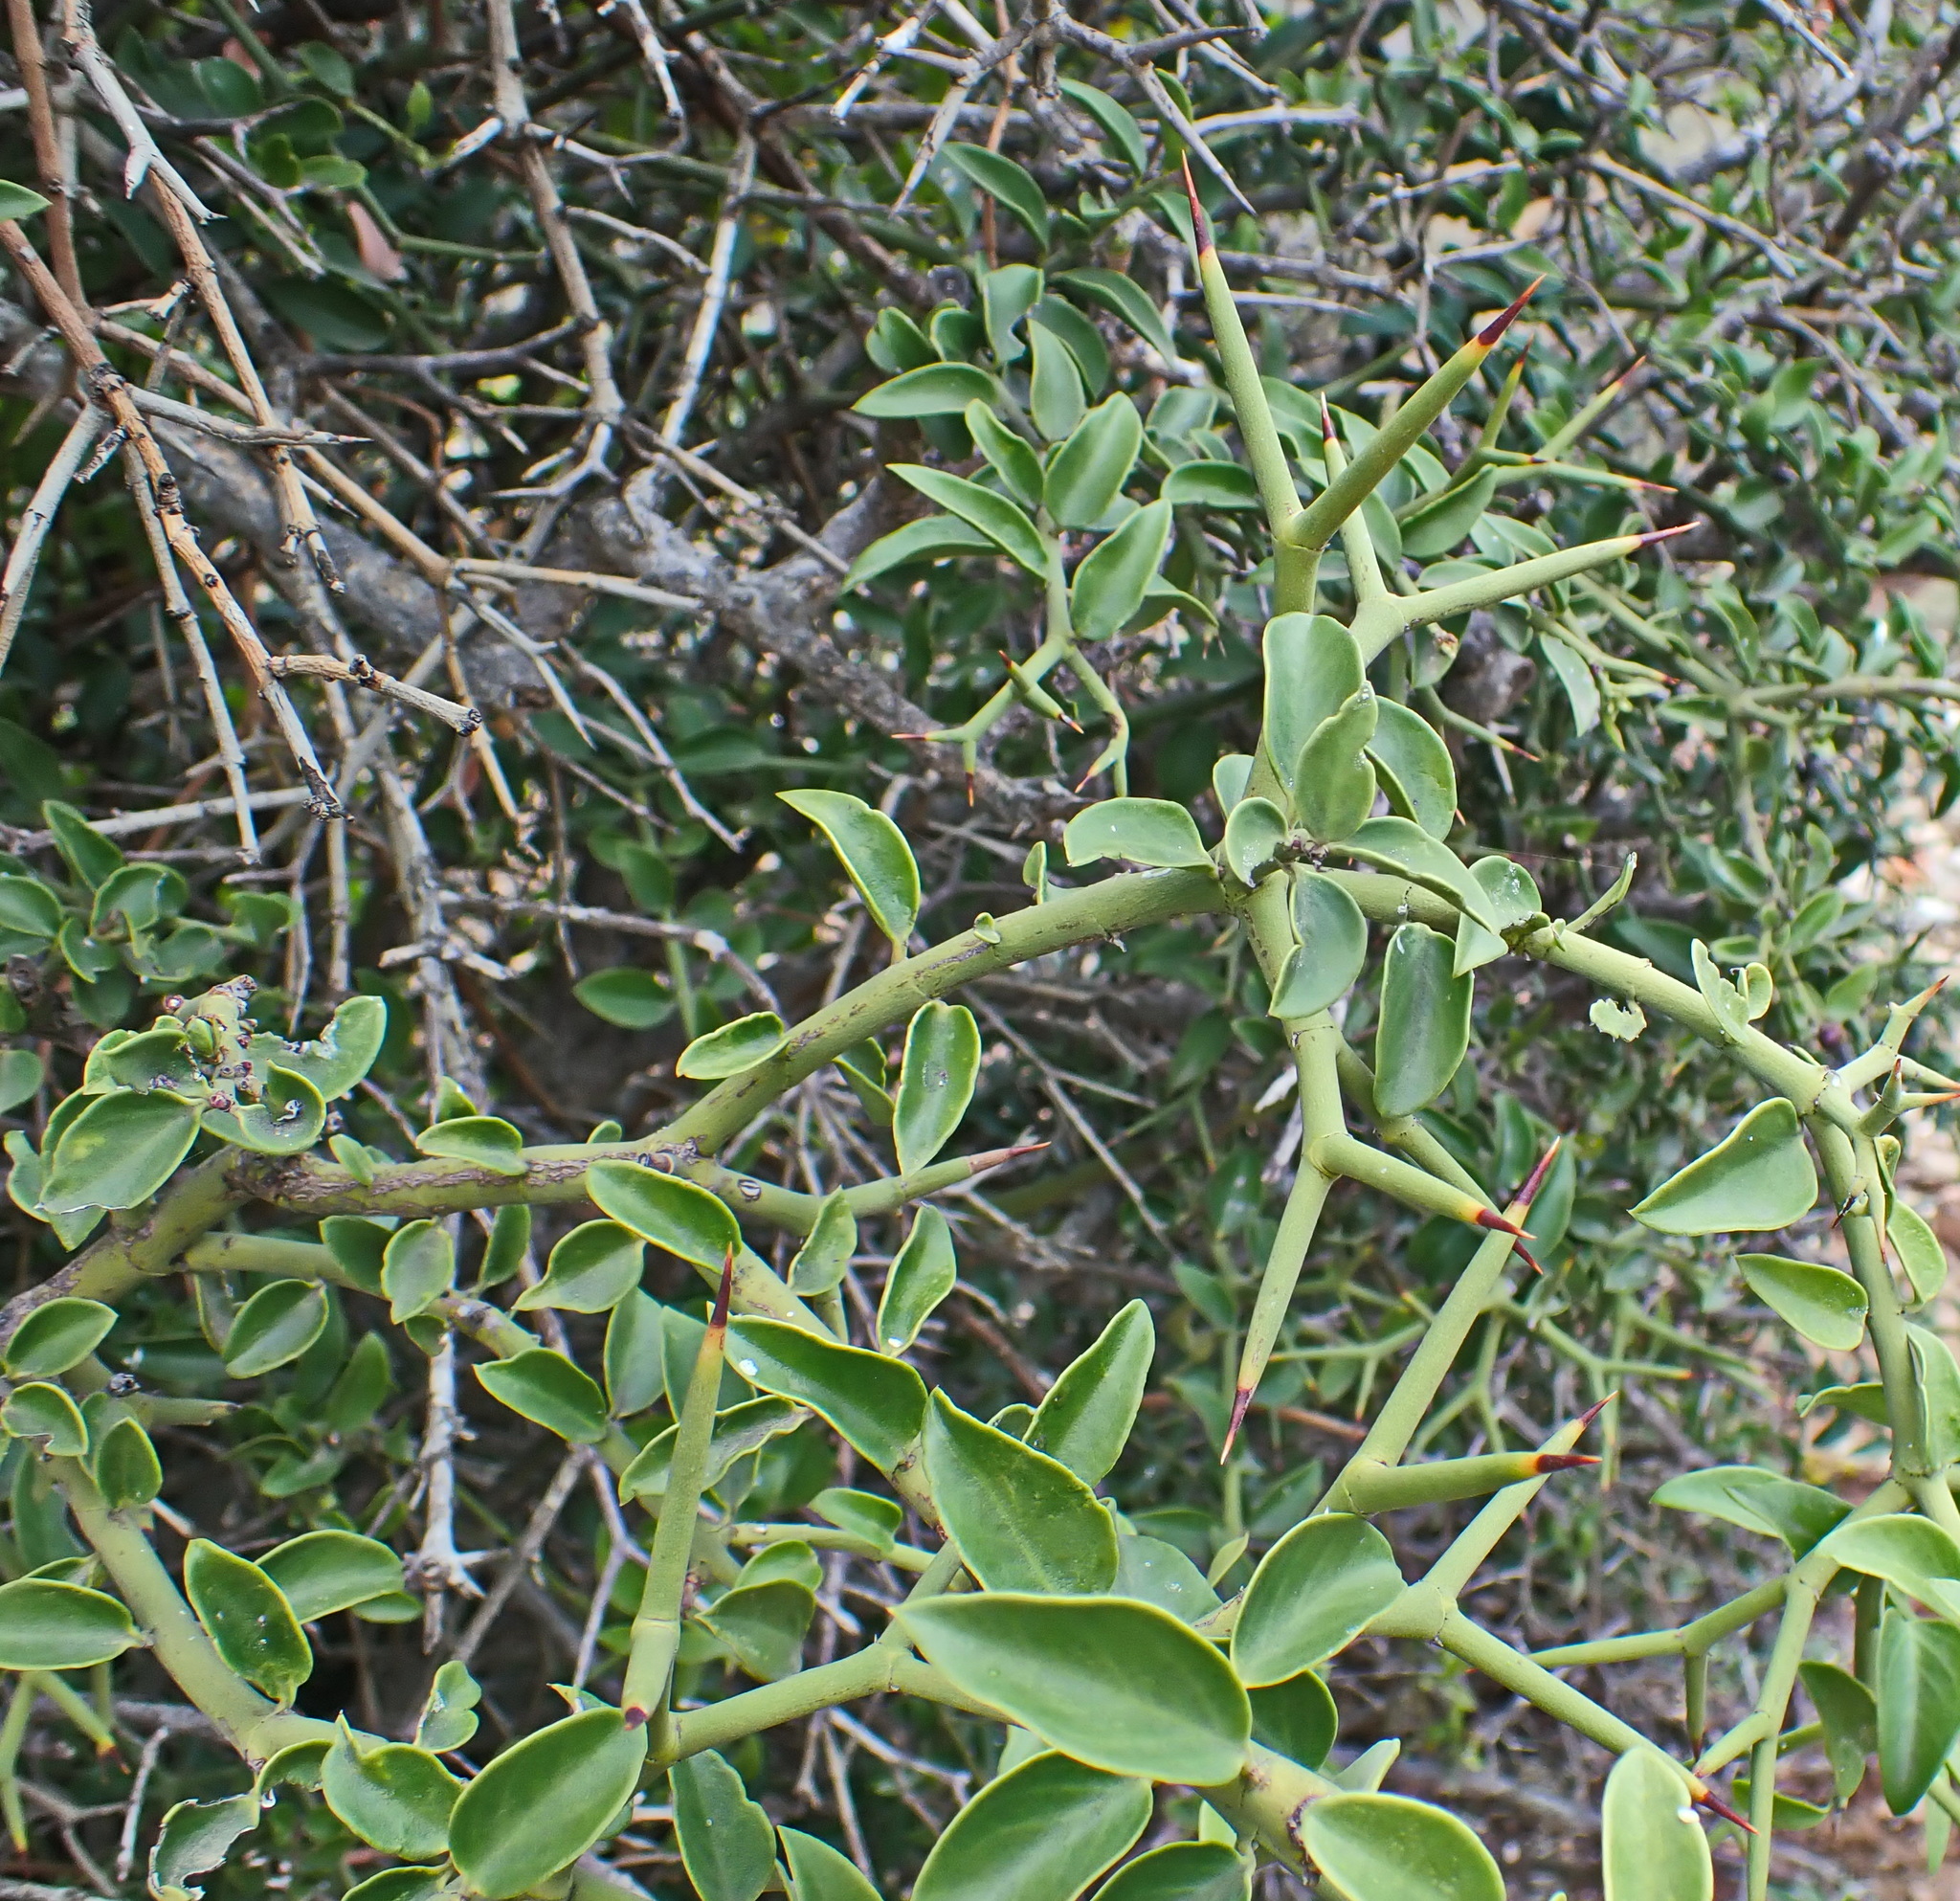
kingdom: Plantae
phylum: Tracheophyta
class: Magnoliopsida
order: Gentianales
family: Apocynaceae
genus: Carissa
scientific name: Carissa haematocarpa
